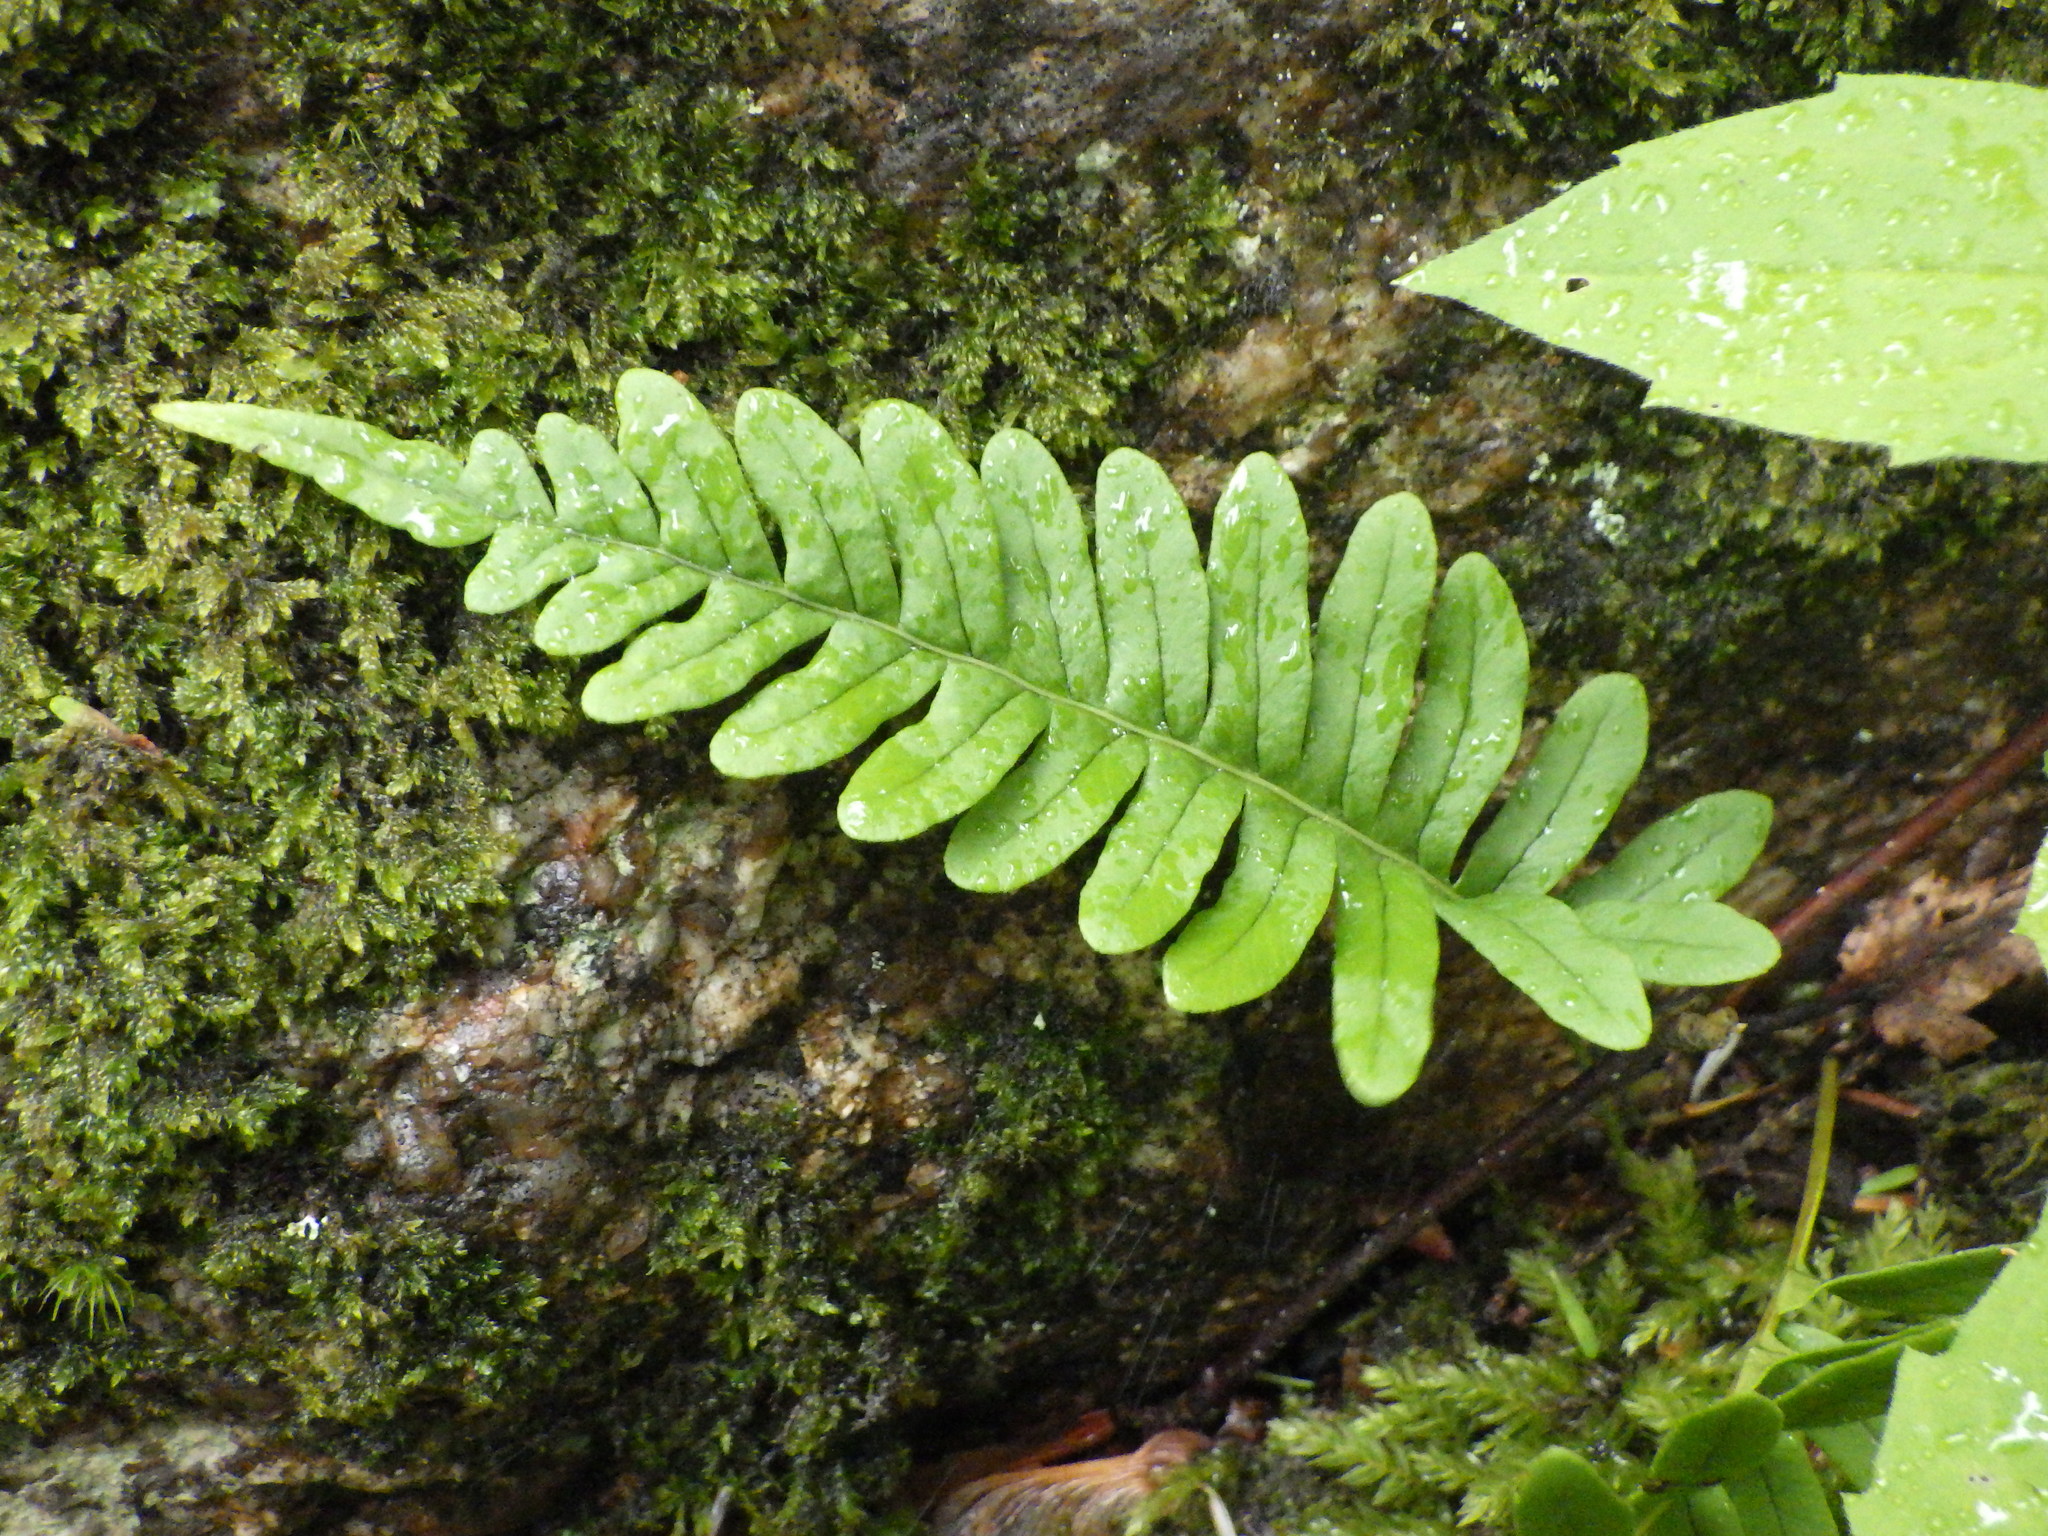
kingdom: Plantae
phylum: Tracheophyta
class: Polypodiopsida
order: Polypodiales
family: Polypodiaceae
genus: Polypodium
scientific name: Polypodium virginianum
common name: American wall fern
